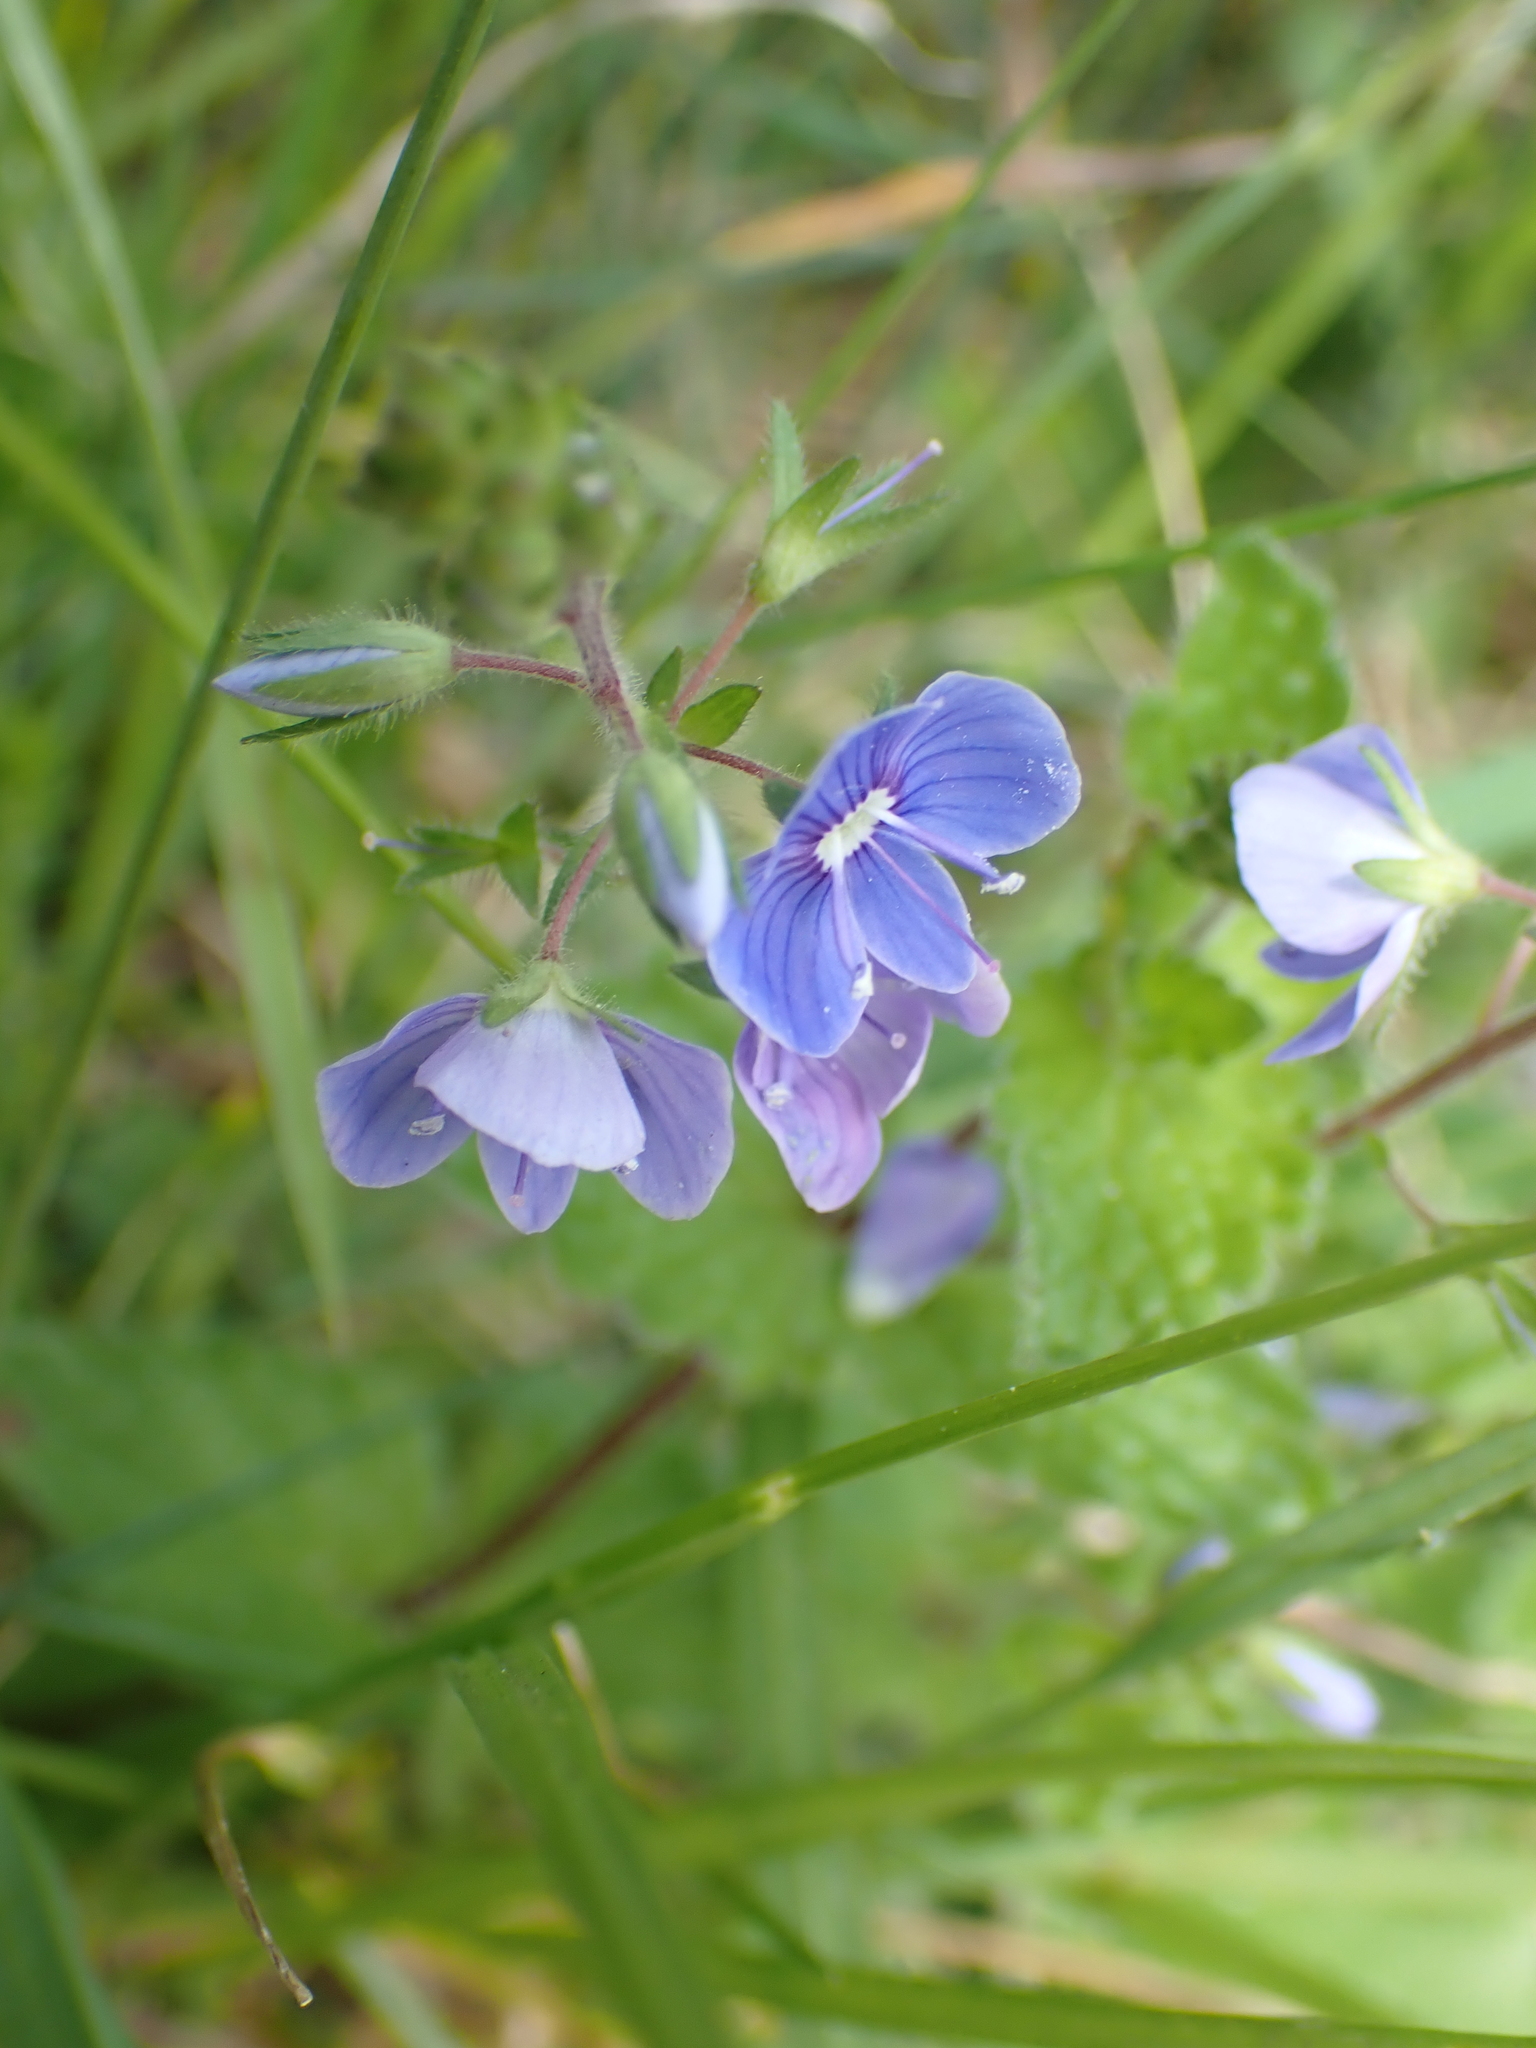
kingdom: Plantae
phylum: Tracheophyta
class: Magnoliopsida
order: Lamiales
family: Plantaginaceae
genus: Veronica
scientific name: Veronica chamaedrys
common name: Germander speedwell
